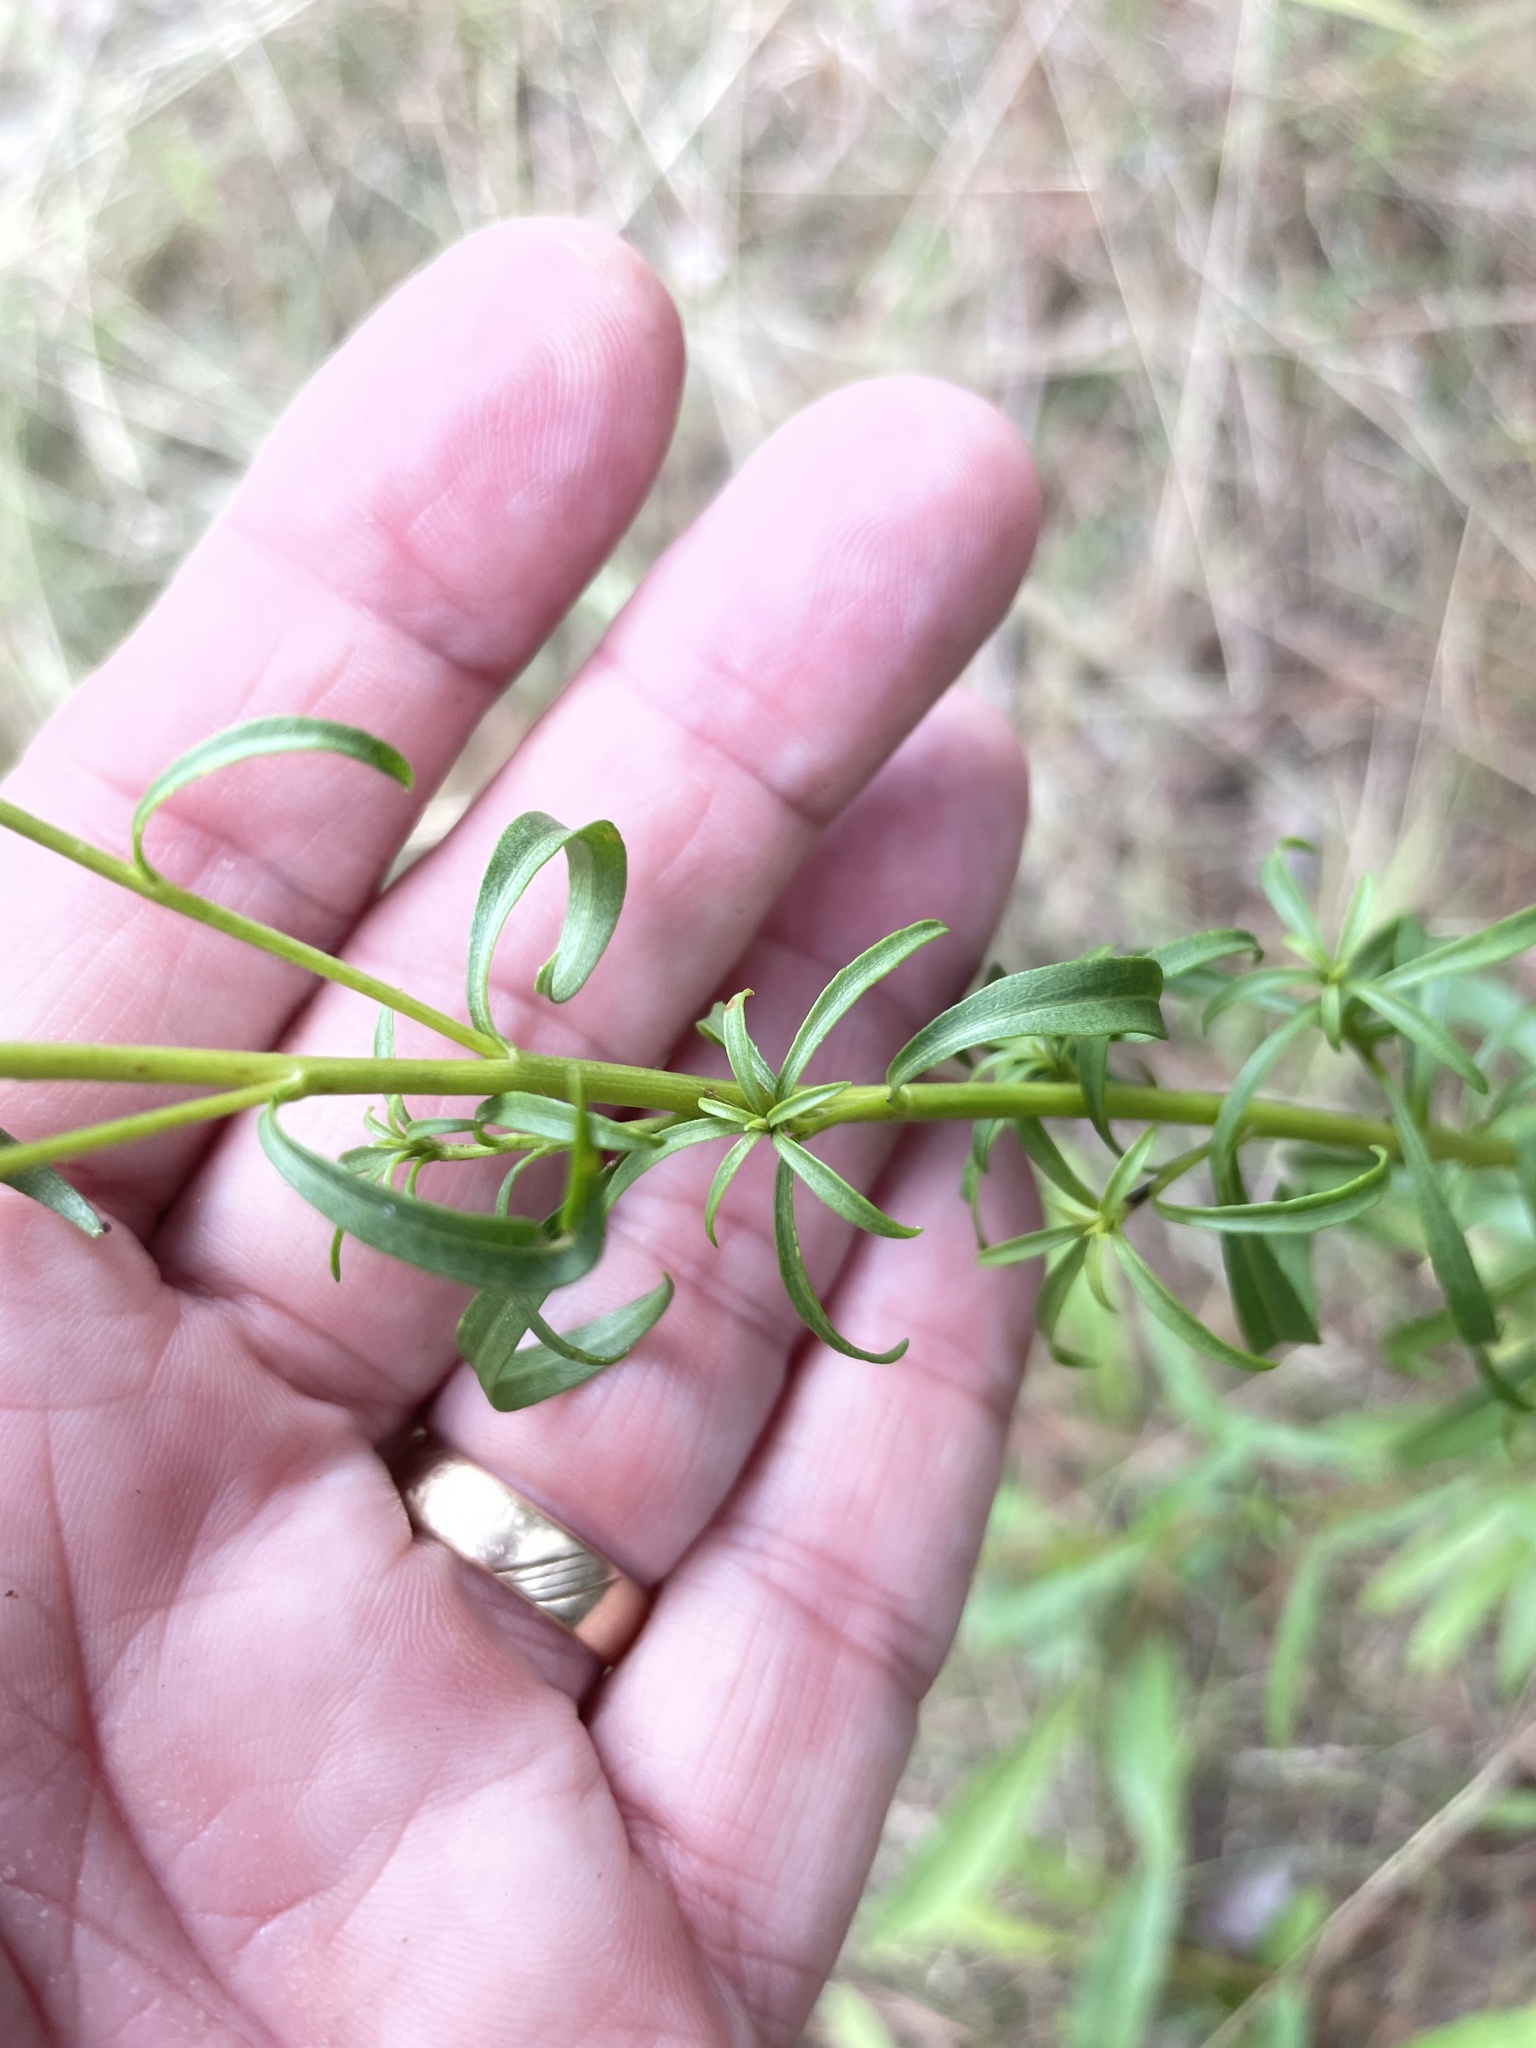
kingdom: Plantae
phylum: Tracheophyta
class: Magnoliopsida
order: Asterales
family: Asteraceae
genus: Solidago
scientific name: Solidago pinetorum
